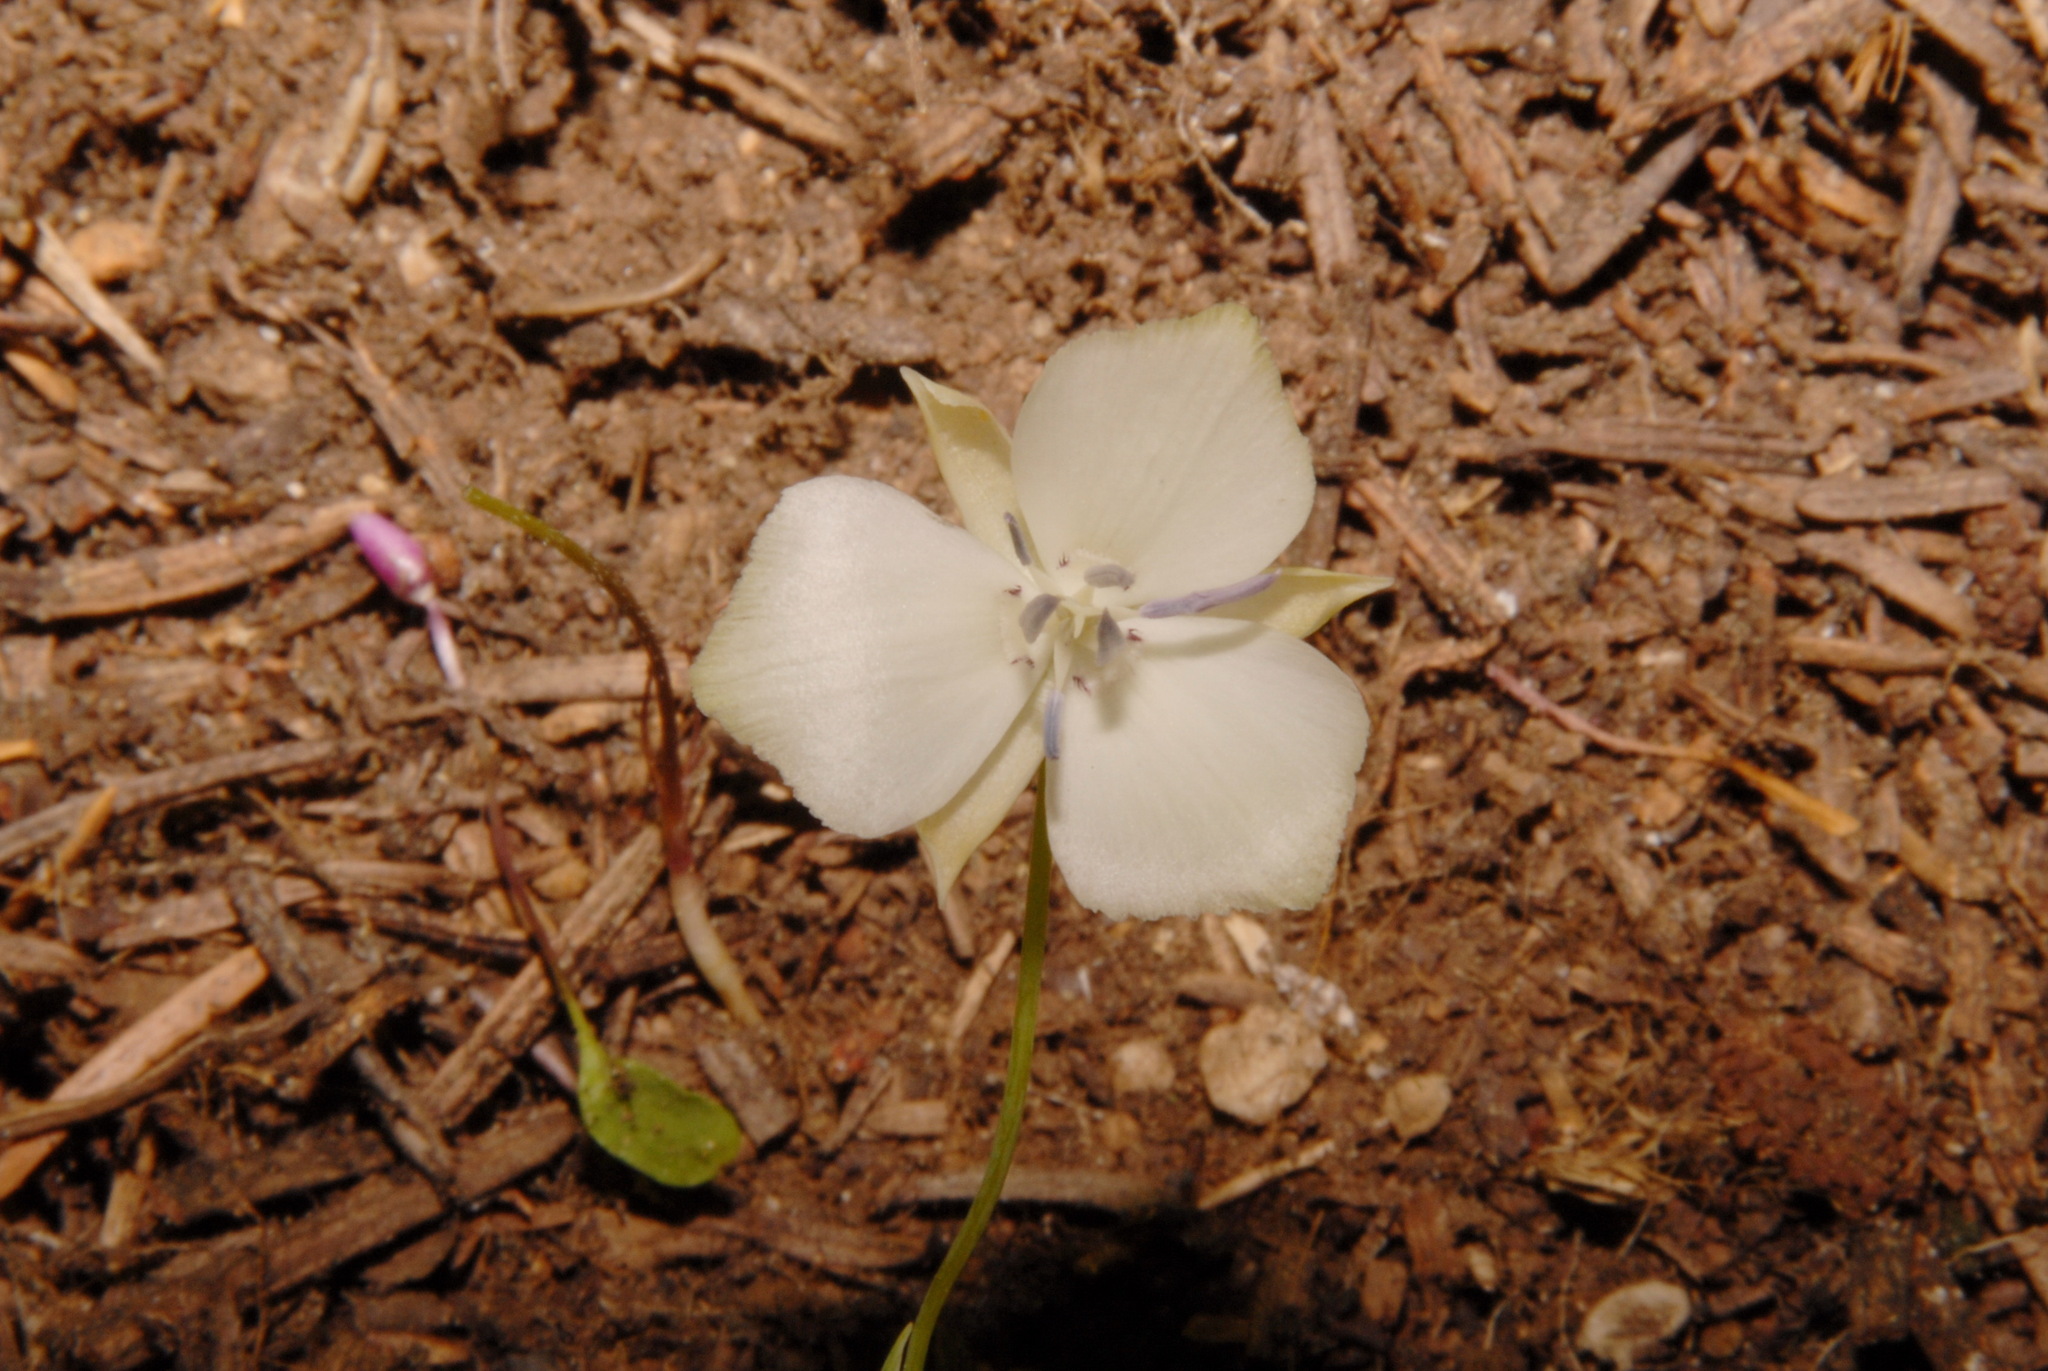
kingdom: Plantae
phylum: Tracheophyta
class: Liliopsida
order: Liliales
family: Liliaceae
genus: Calochortus
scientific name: Calochortus minimus
